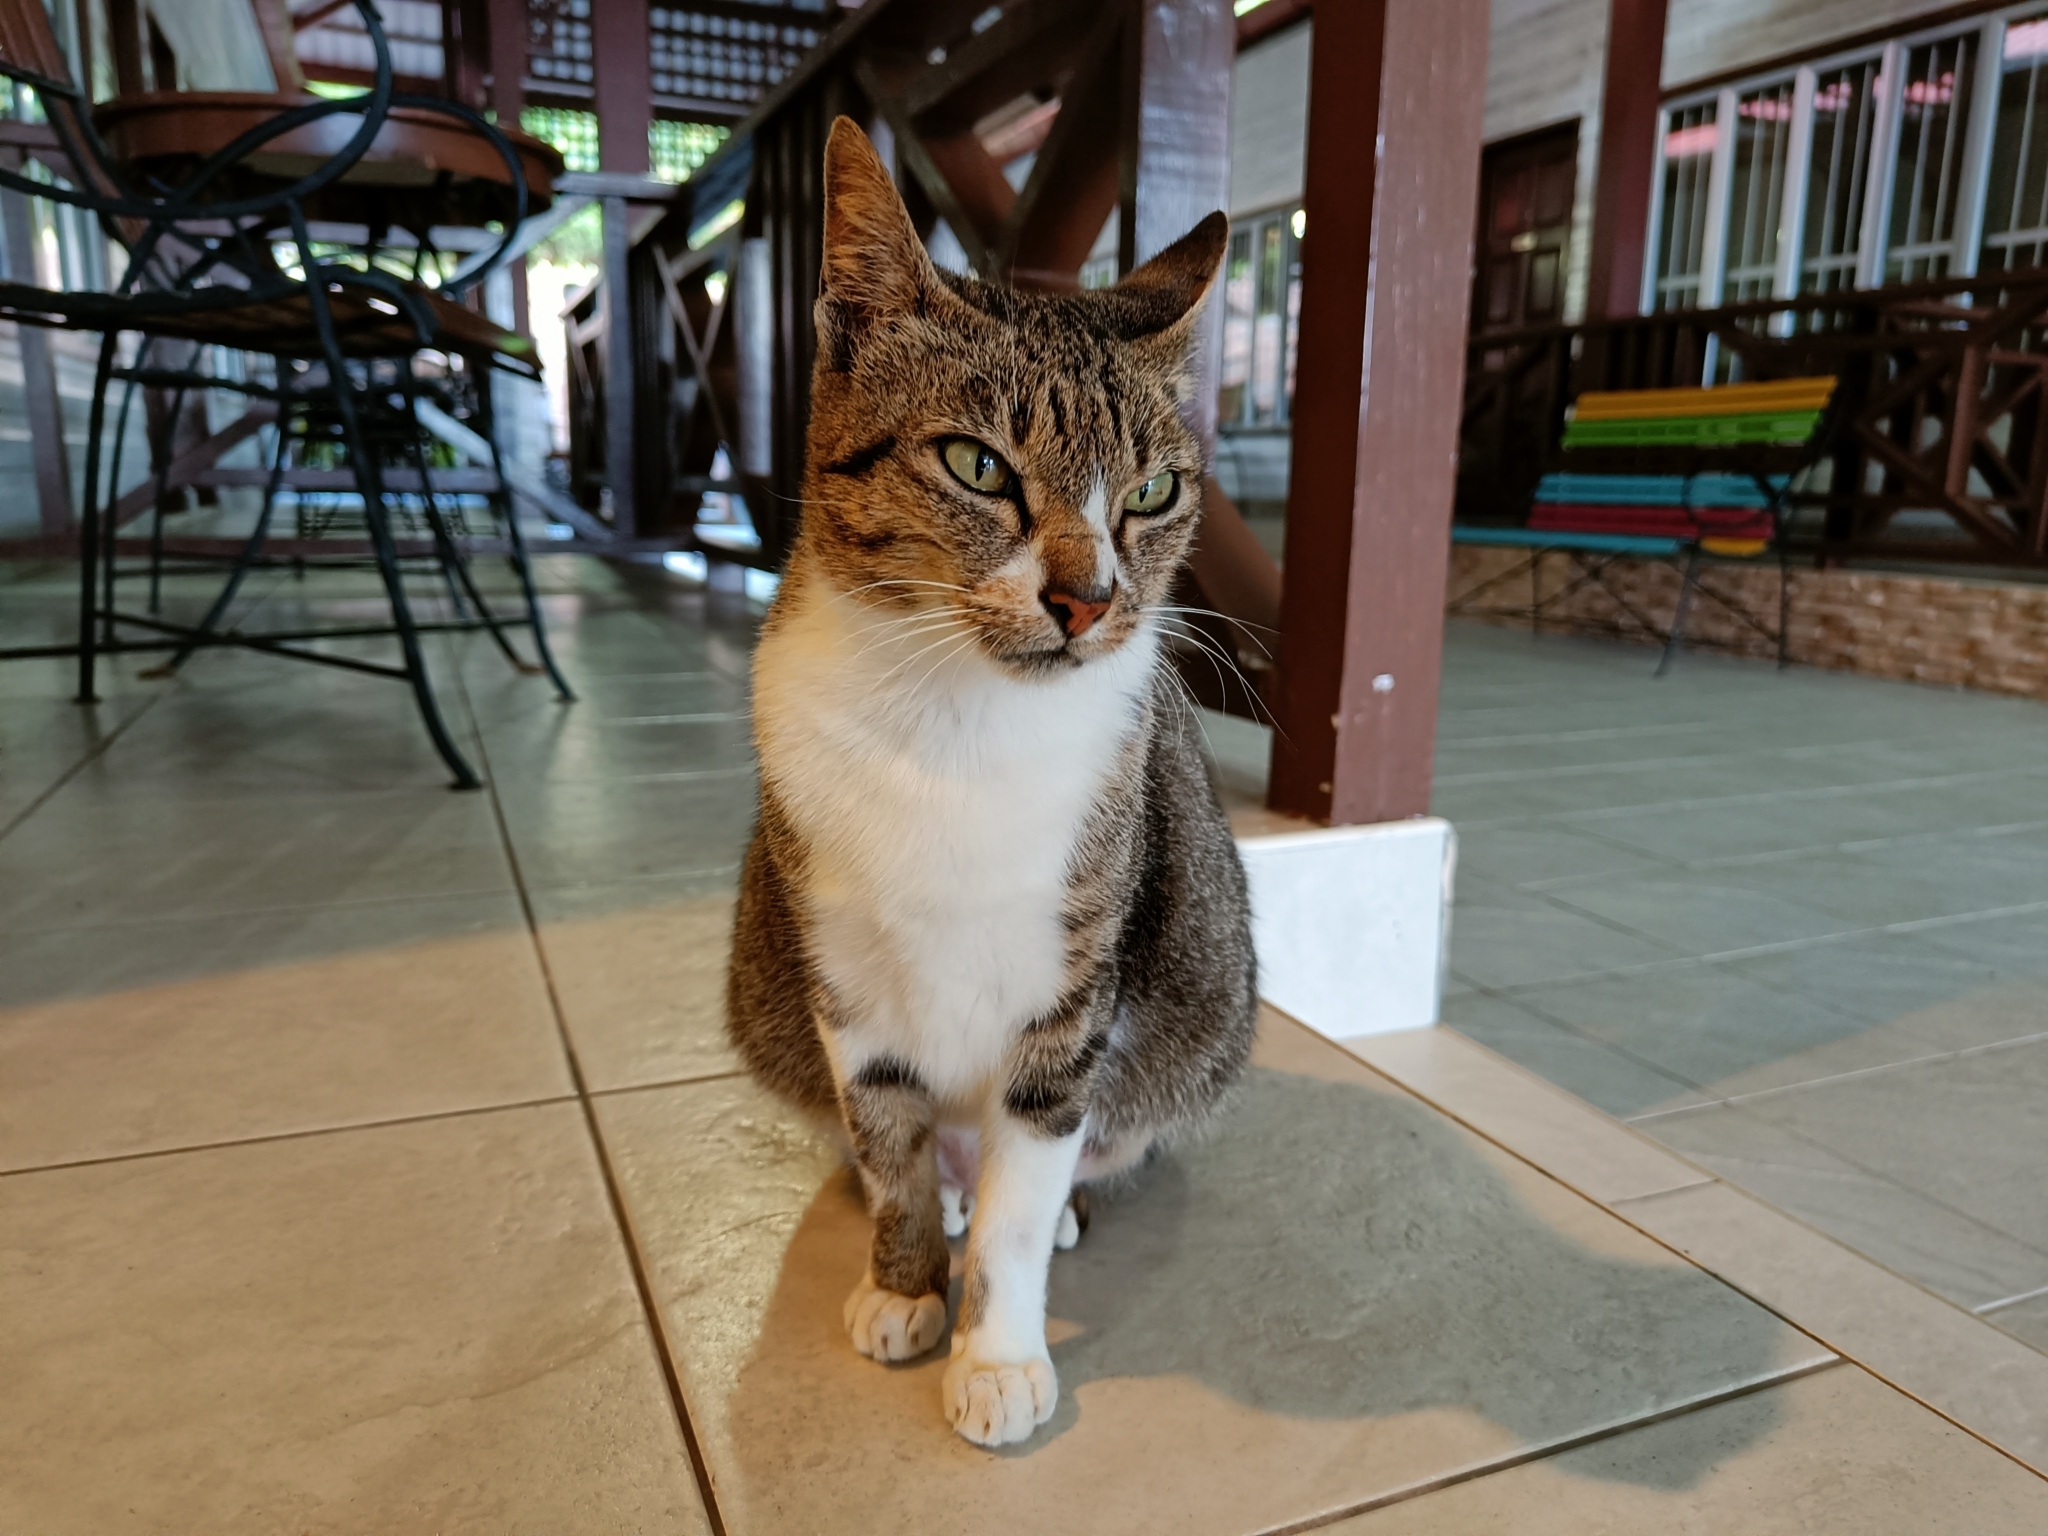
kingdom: Animalia
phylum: Chordata
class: Mammalia
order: Carnivora
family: Felidae
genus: Felis
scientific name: Felis catus
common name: Domestic cat
